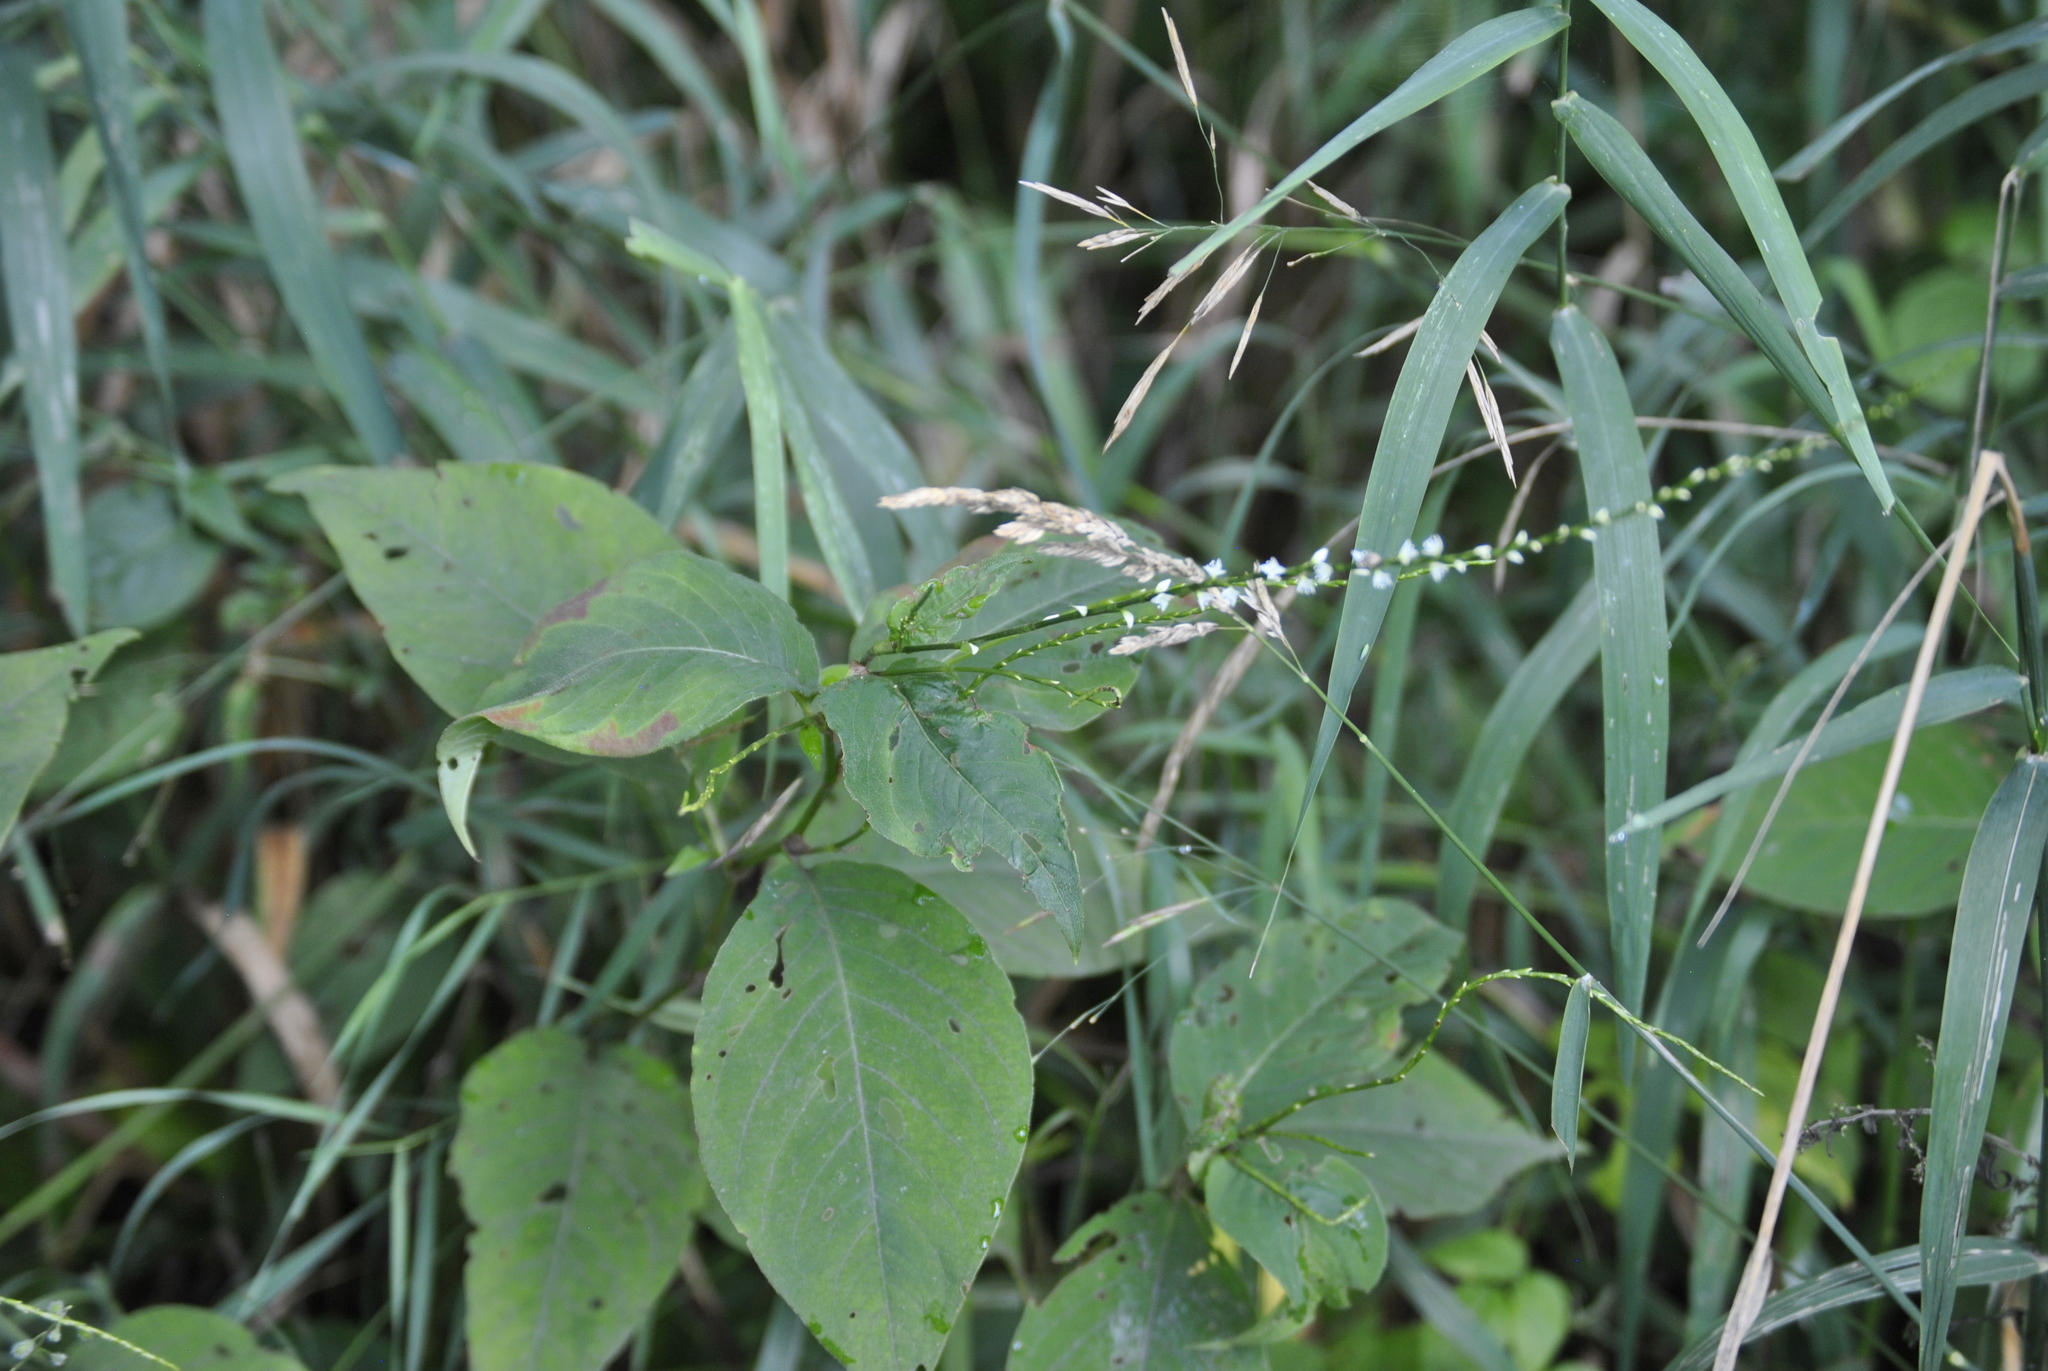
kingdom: Plantae
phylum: Tracheophyta
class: Magnoliopsida
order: Caryophyllales
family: Polygonaceae
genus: Persicaria
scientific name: Persicaria virginiana
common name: Jumpseed
